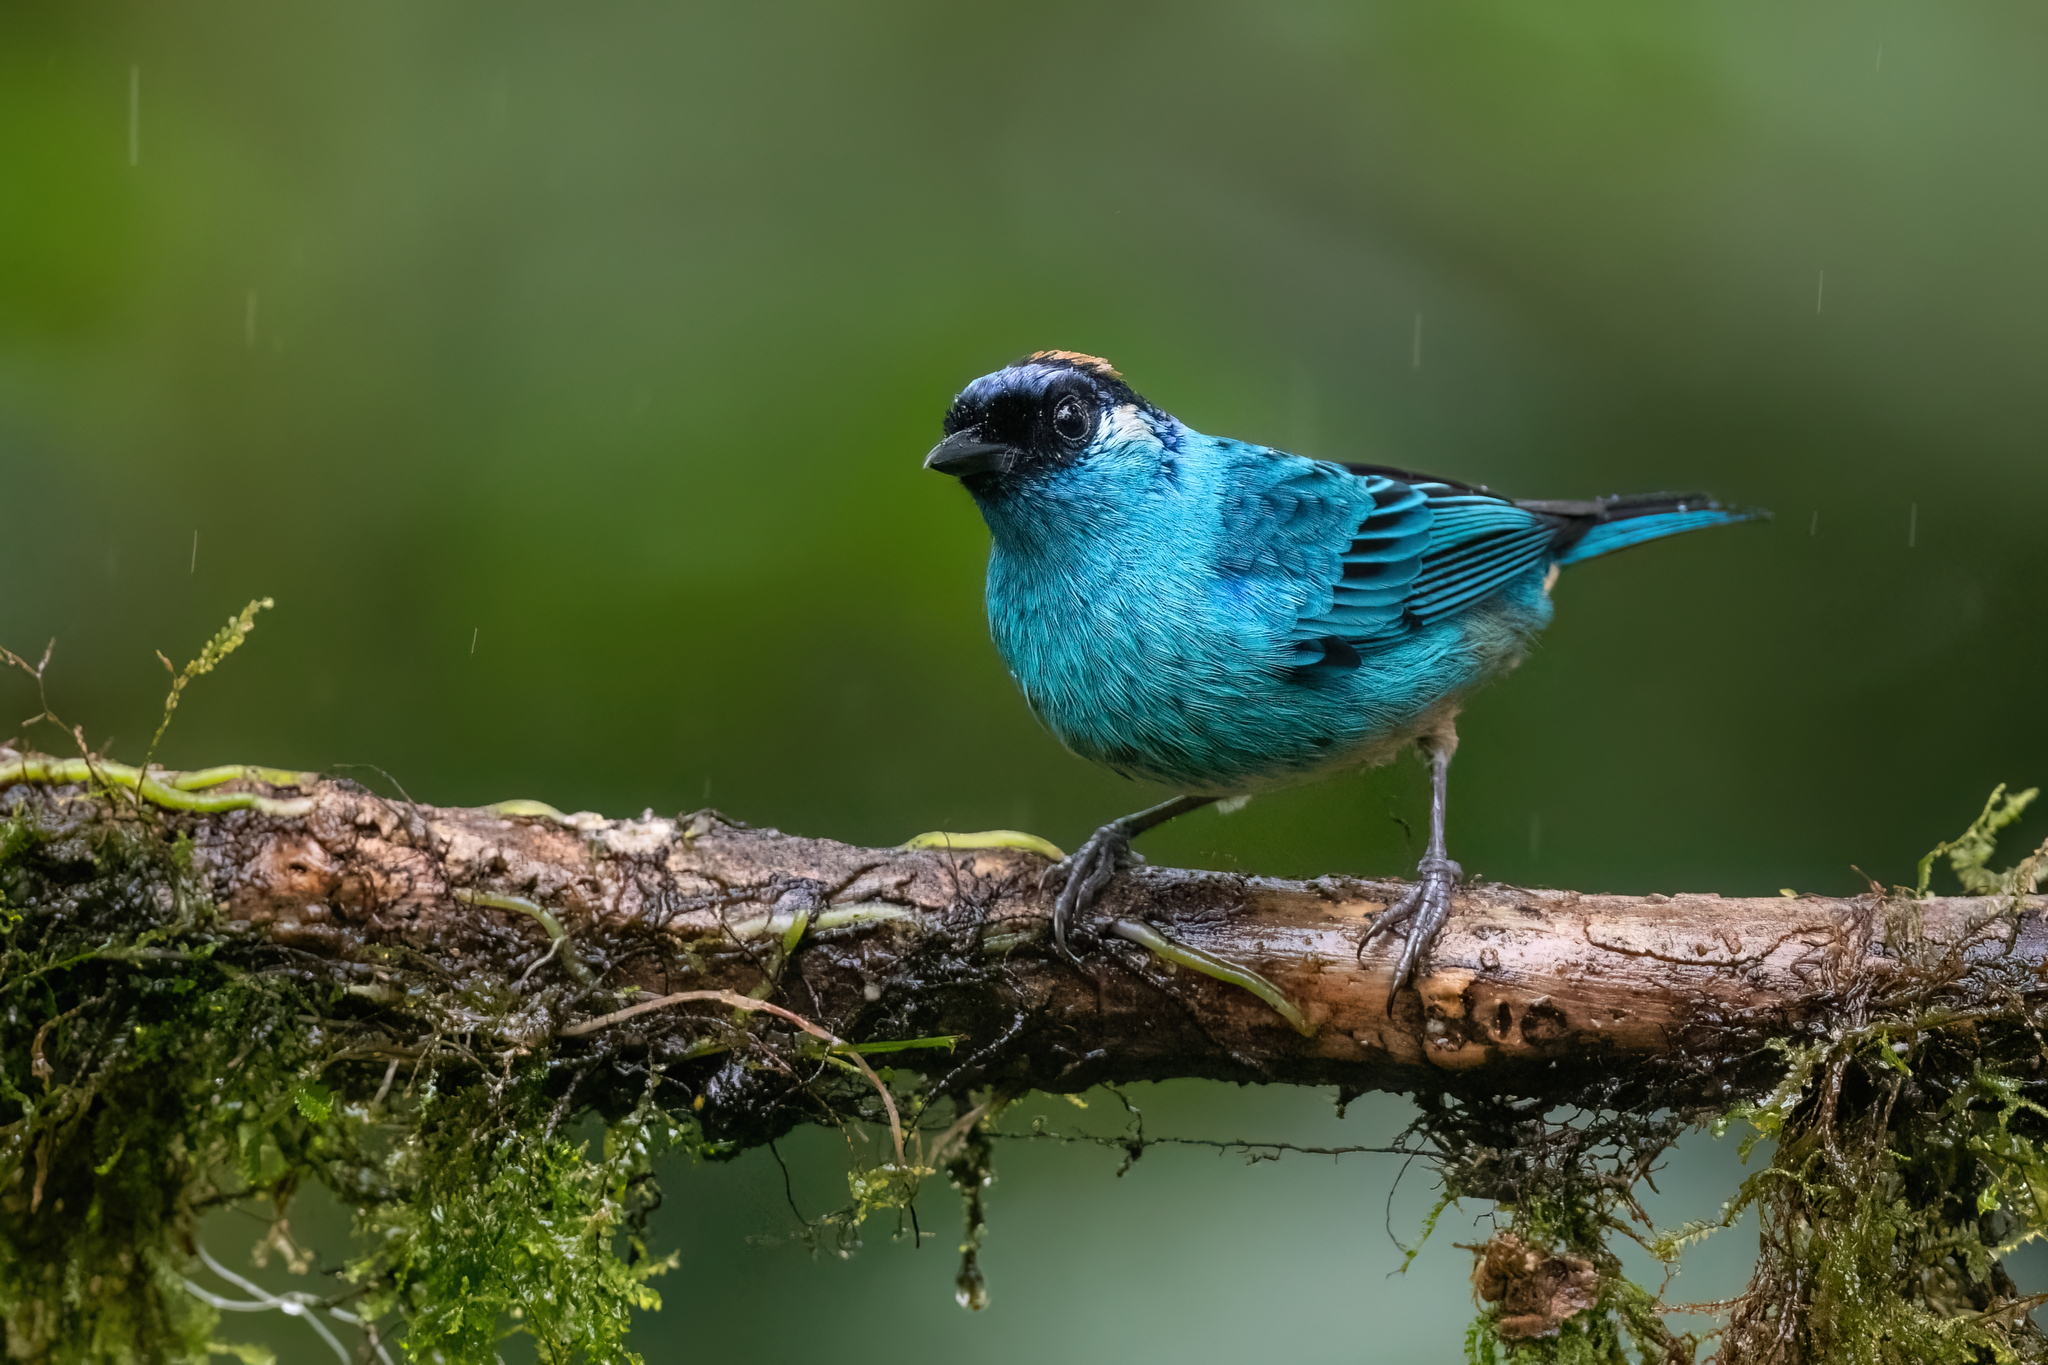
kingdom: Animalia
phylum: Chordata
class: Aves
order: Passeriformes
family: Thraupidae
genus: Chalcothraupis
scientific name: Chalcothraupis ruficervix
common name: Golden-naped tanager
